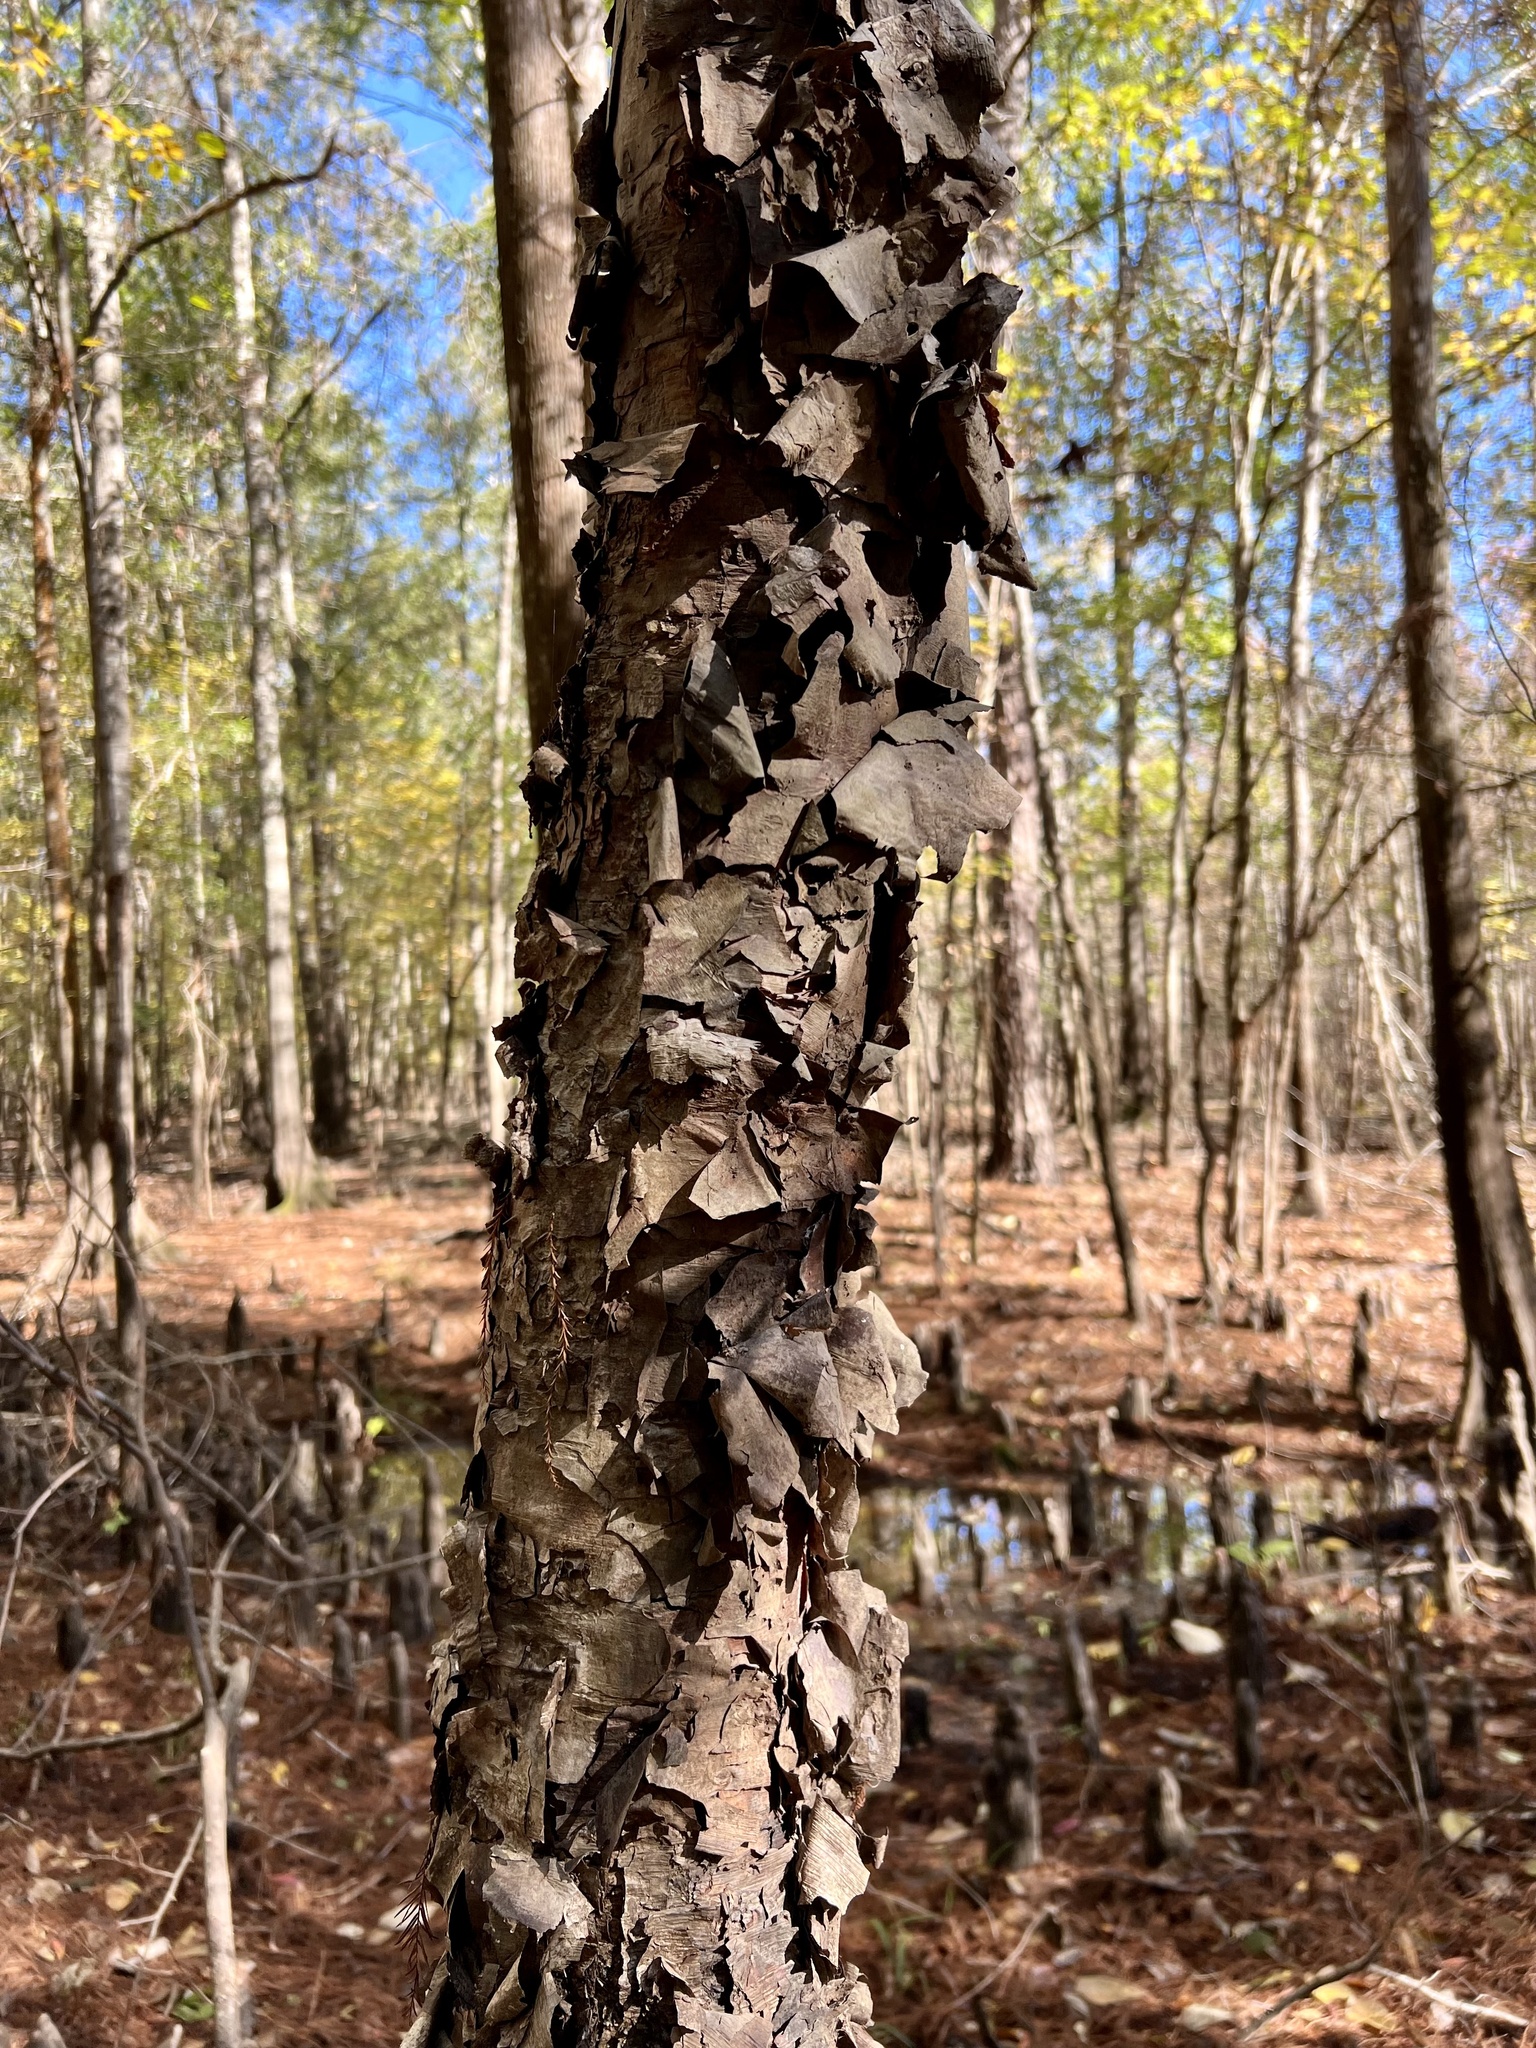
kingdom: Plantae
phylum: Tracheophyta
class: Magnoliopsida
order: Fagales
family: Betulaceae
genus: Betula
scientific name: Betula nigra
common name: Black birch
